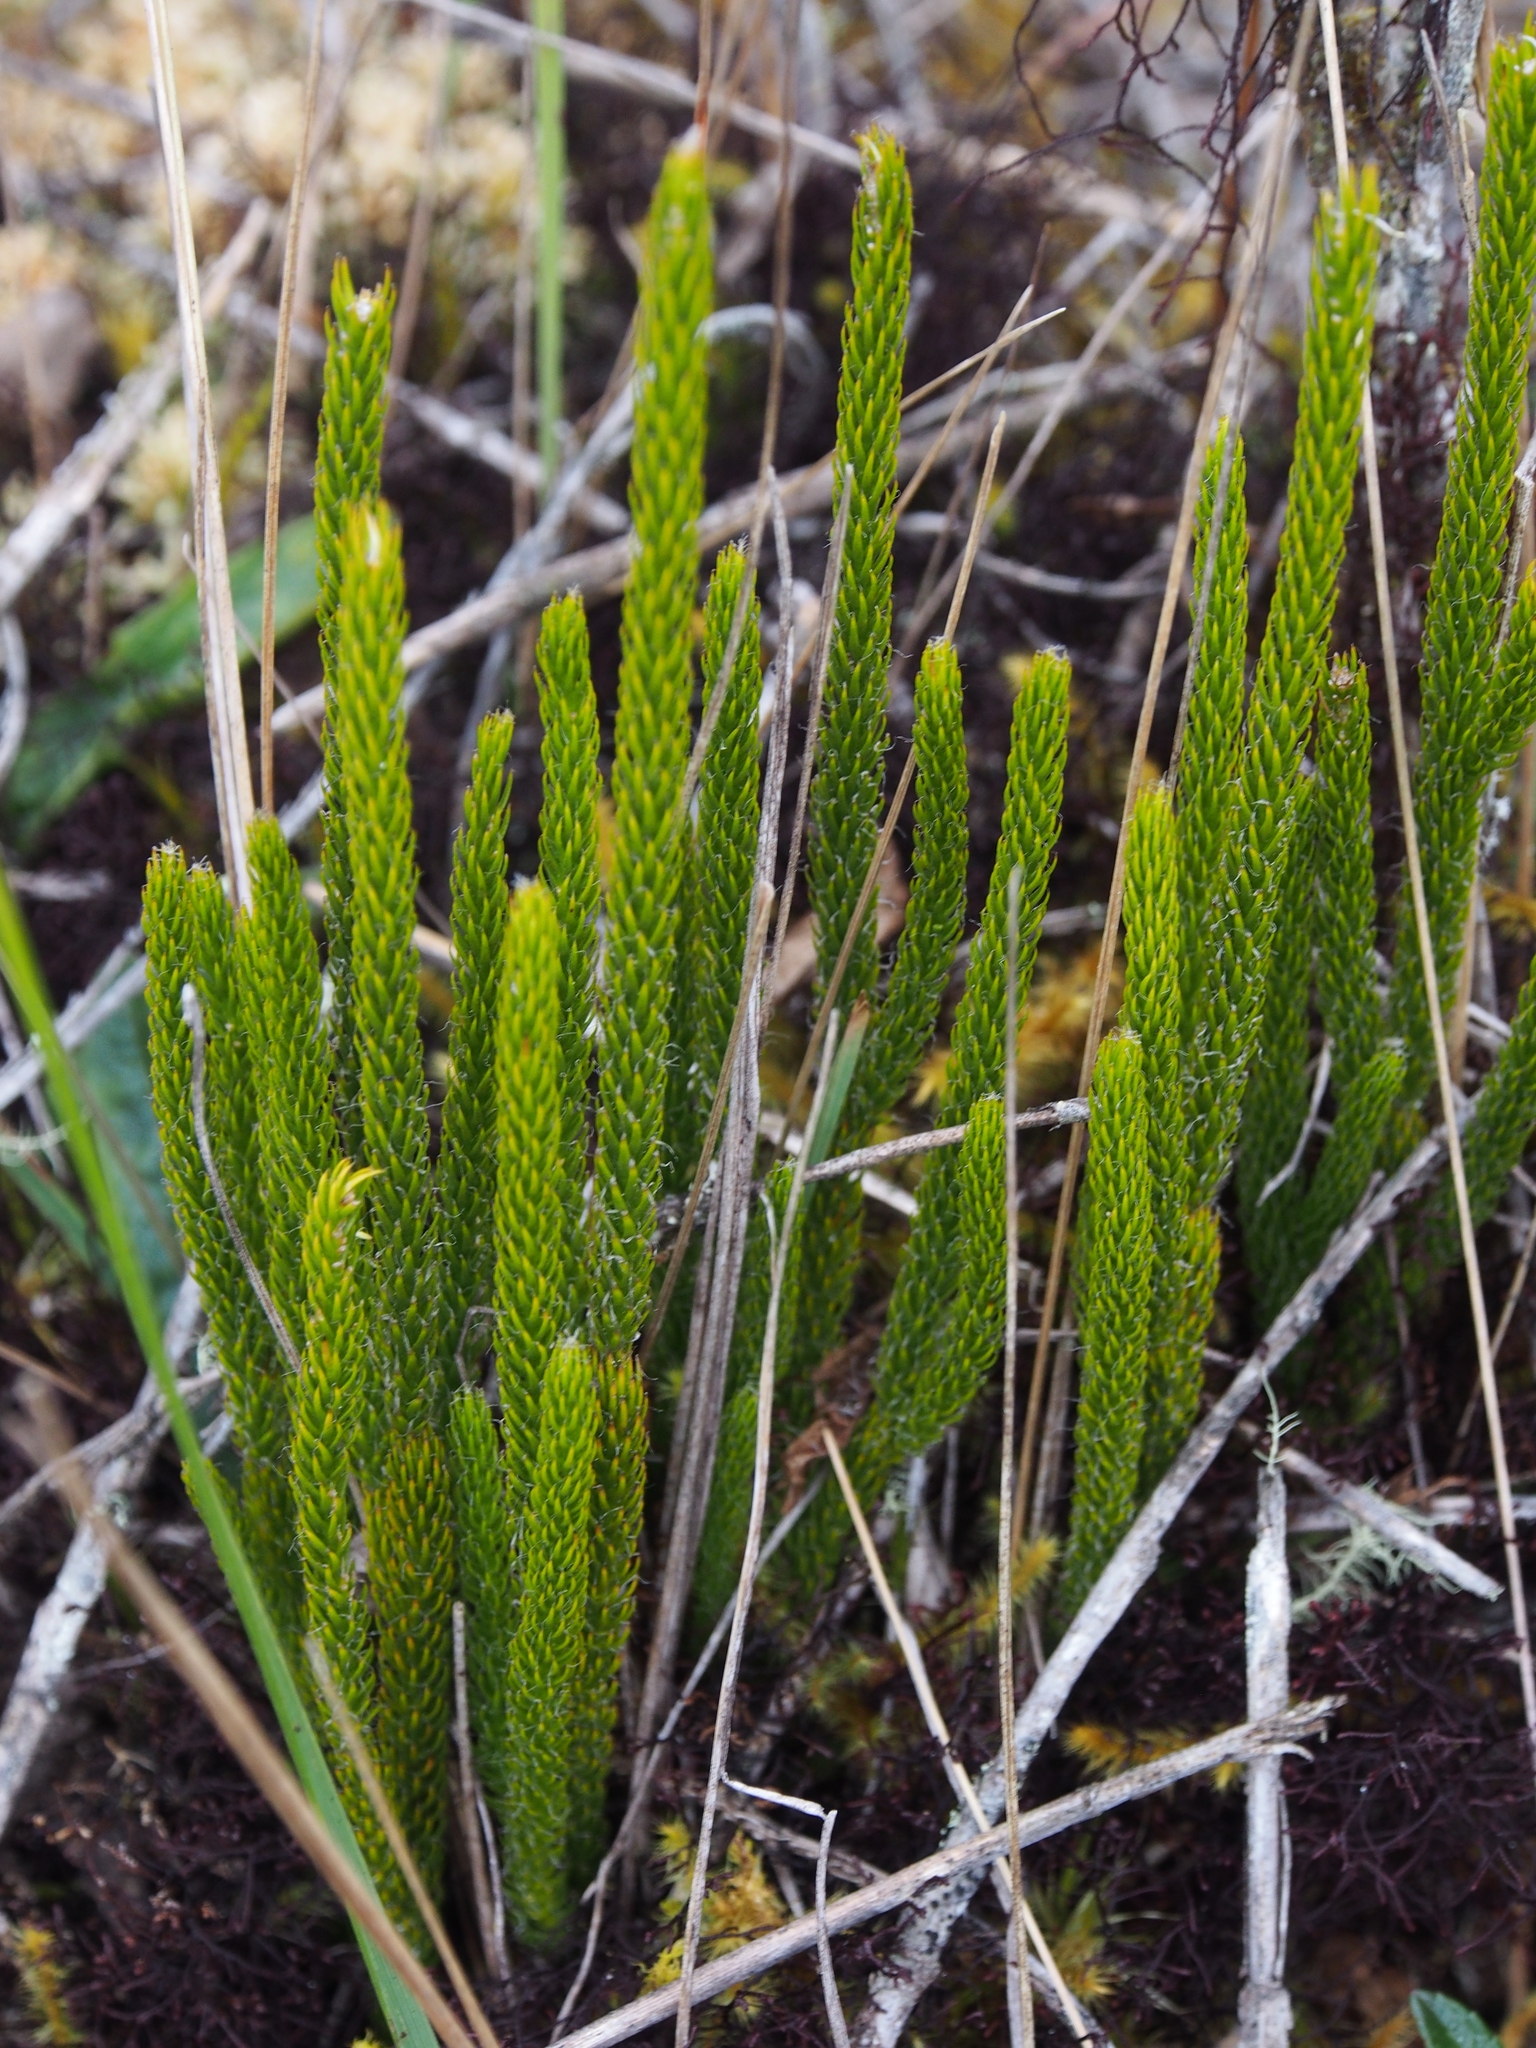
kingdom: Plantae
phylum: Tracheophyta
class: Lycopodiopsida
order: Lycopodiales
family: Lycopodiaceae
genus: Lycopodium
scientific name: Lycopodium clavatum
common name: Stag's-horn clubmoss
